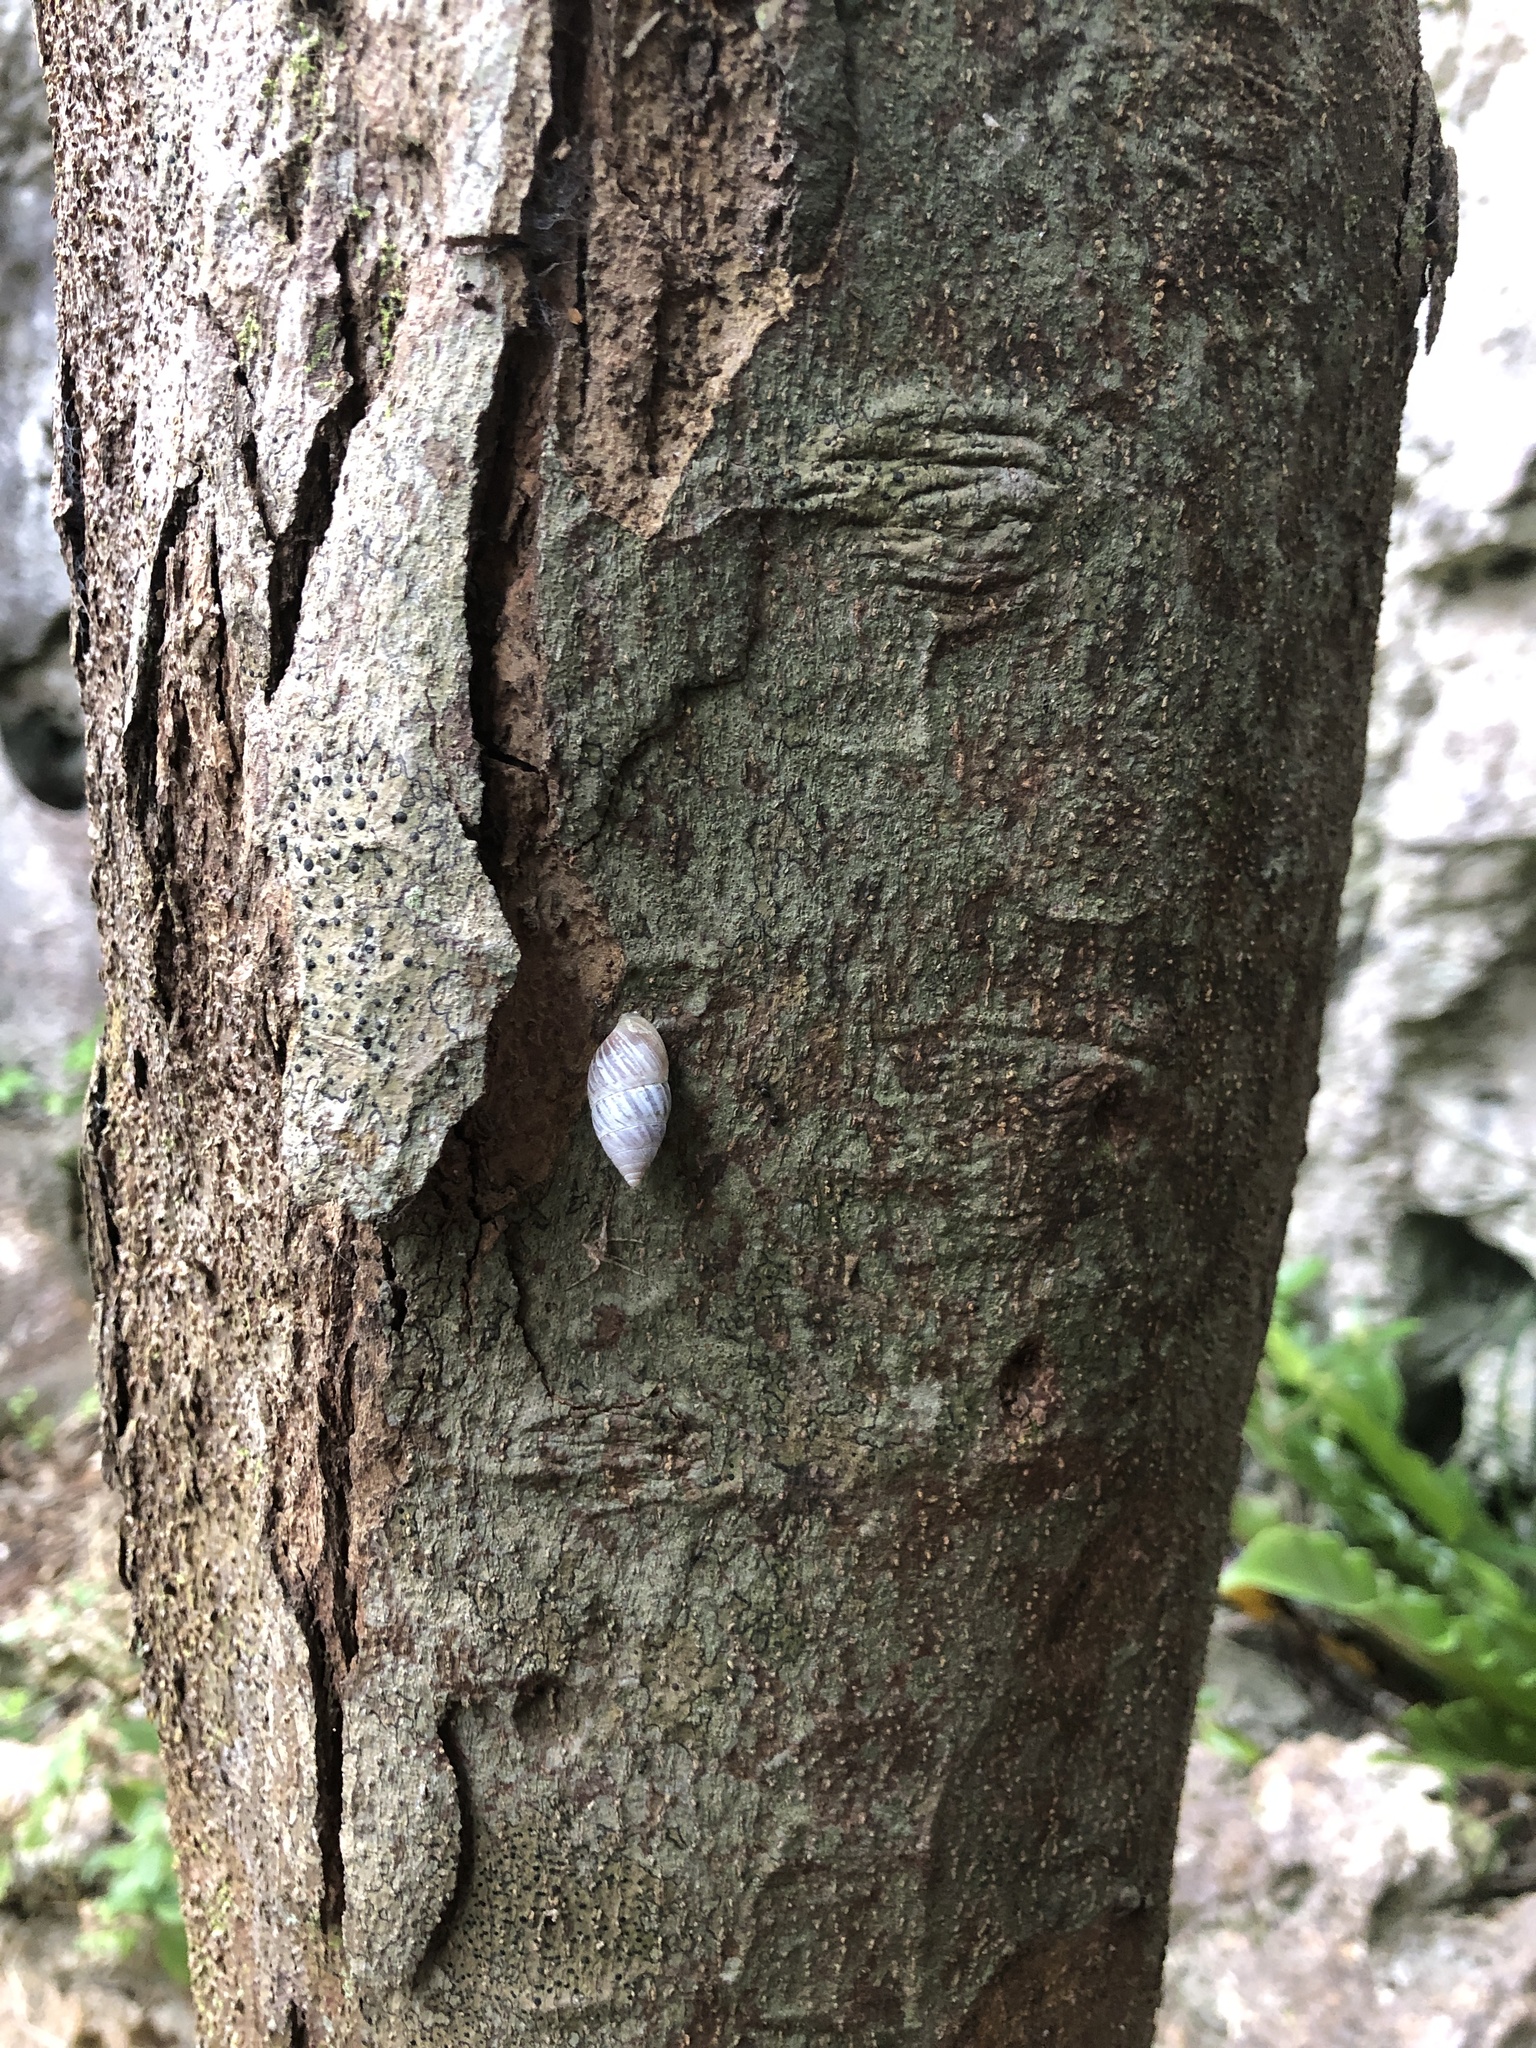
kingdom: Animalia
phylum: Mollusca
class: Gastropoda
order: Stylommatophora
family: Enidae
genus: Luchuena
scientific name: Luchuena reticulata
